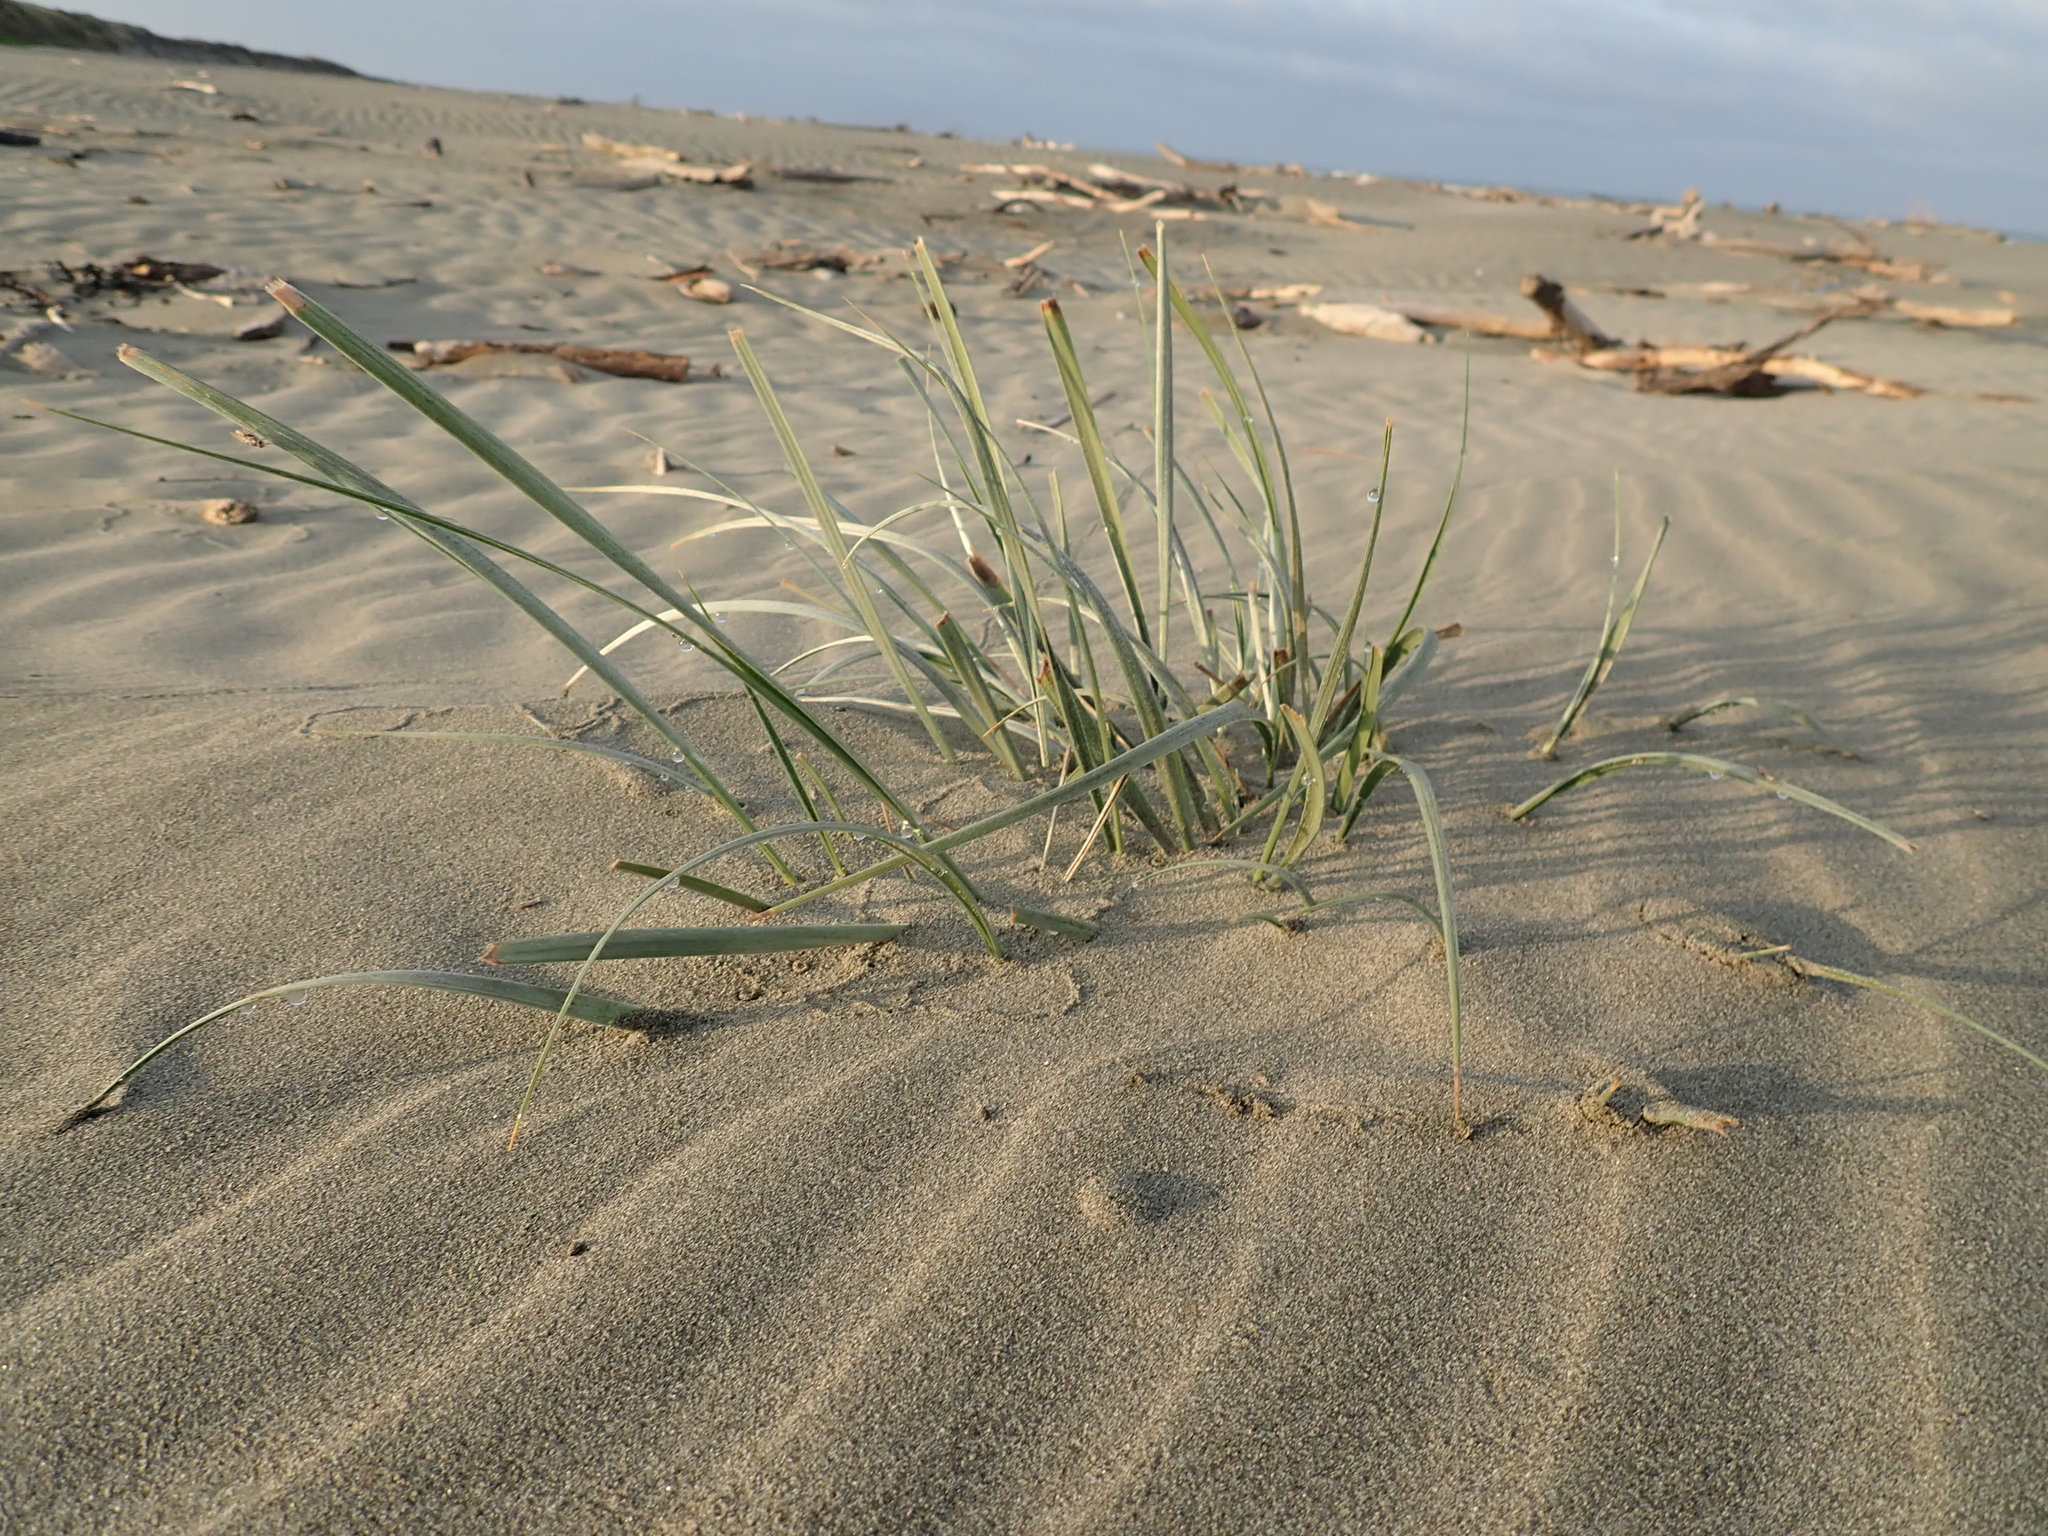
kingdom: Plantae
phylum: Tracheophyta
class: Liliopsida
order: Poales
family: Poaceae
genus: Spinifex
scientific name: Spinifex sericeus
